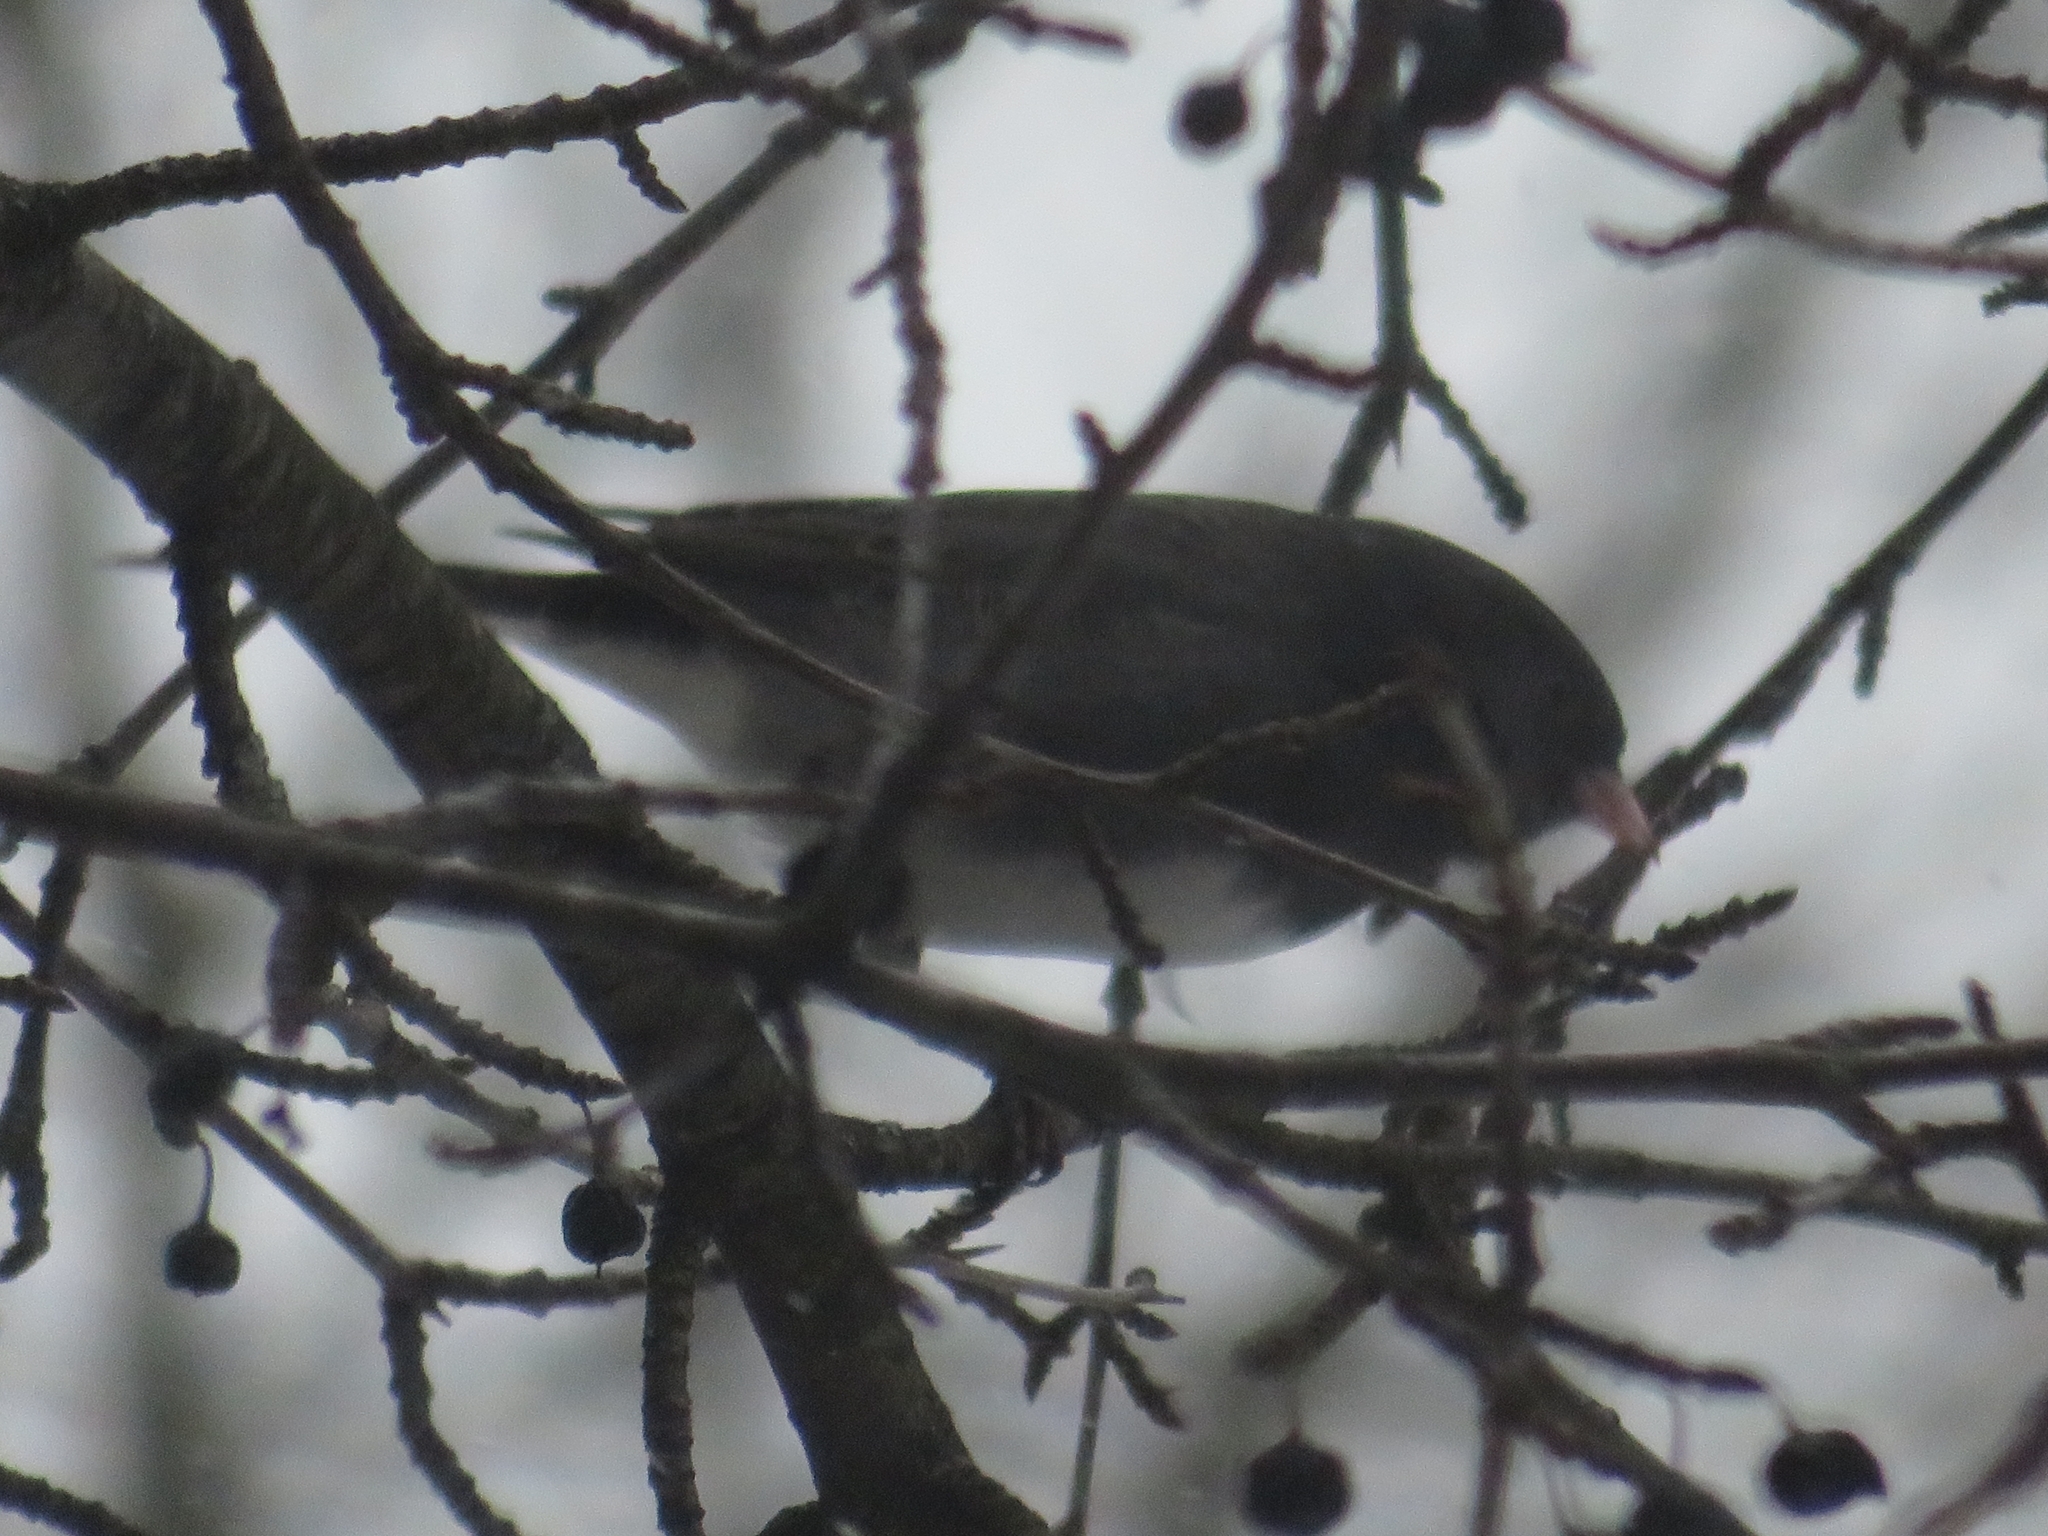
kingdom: Animalia
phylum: Chordata
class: Aves
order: Passeriformes
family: Passerellidae
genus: Junco
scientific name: Junco hyemalis
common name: Dark-eyed junco
